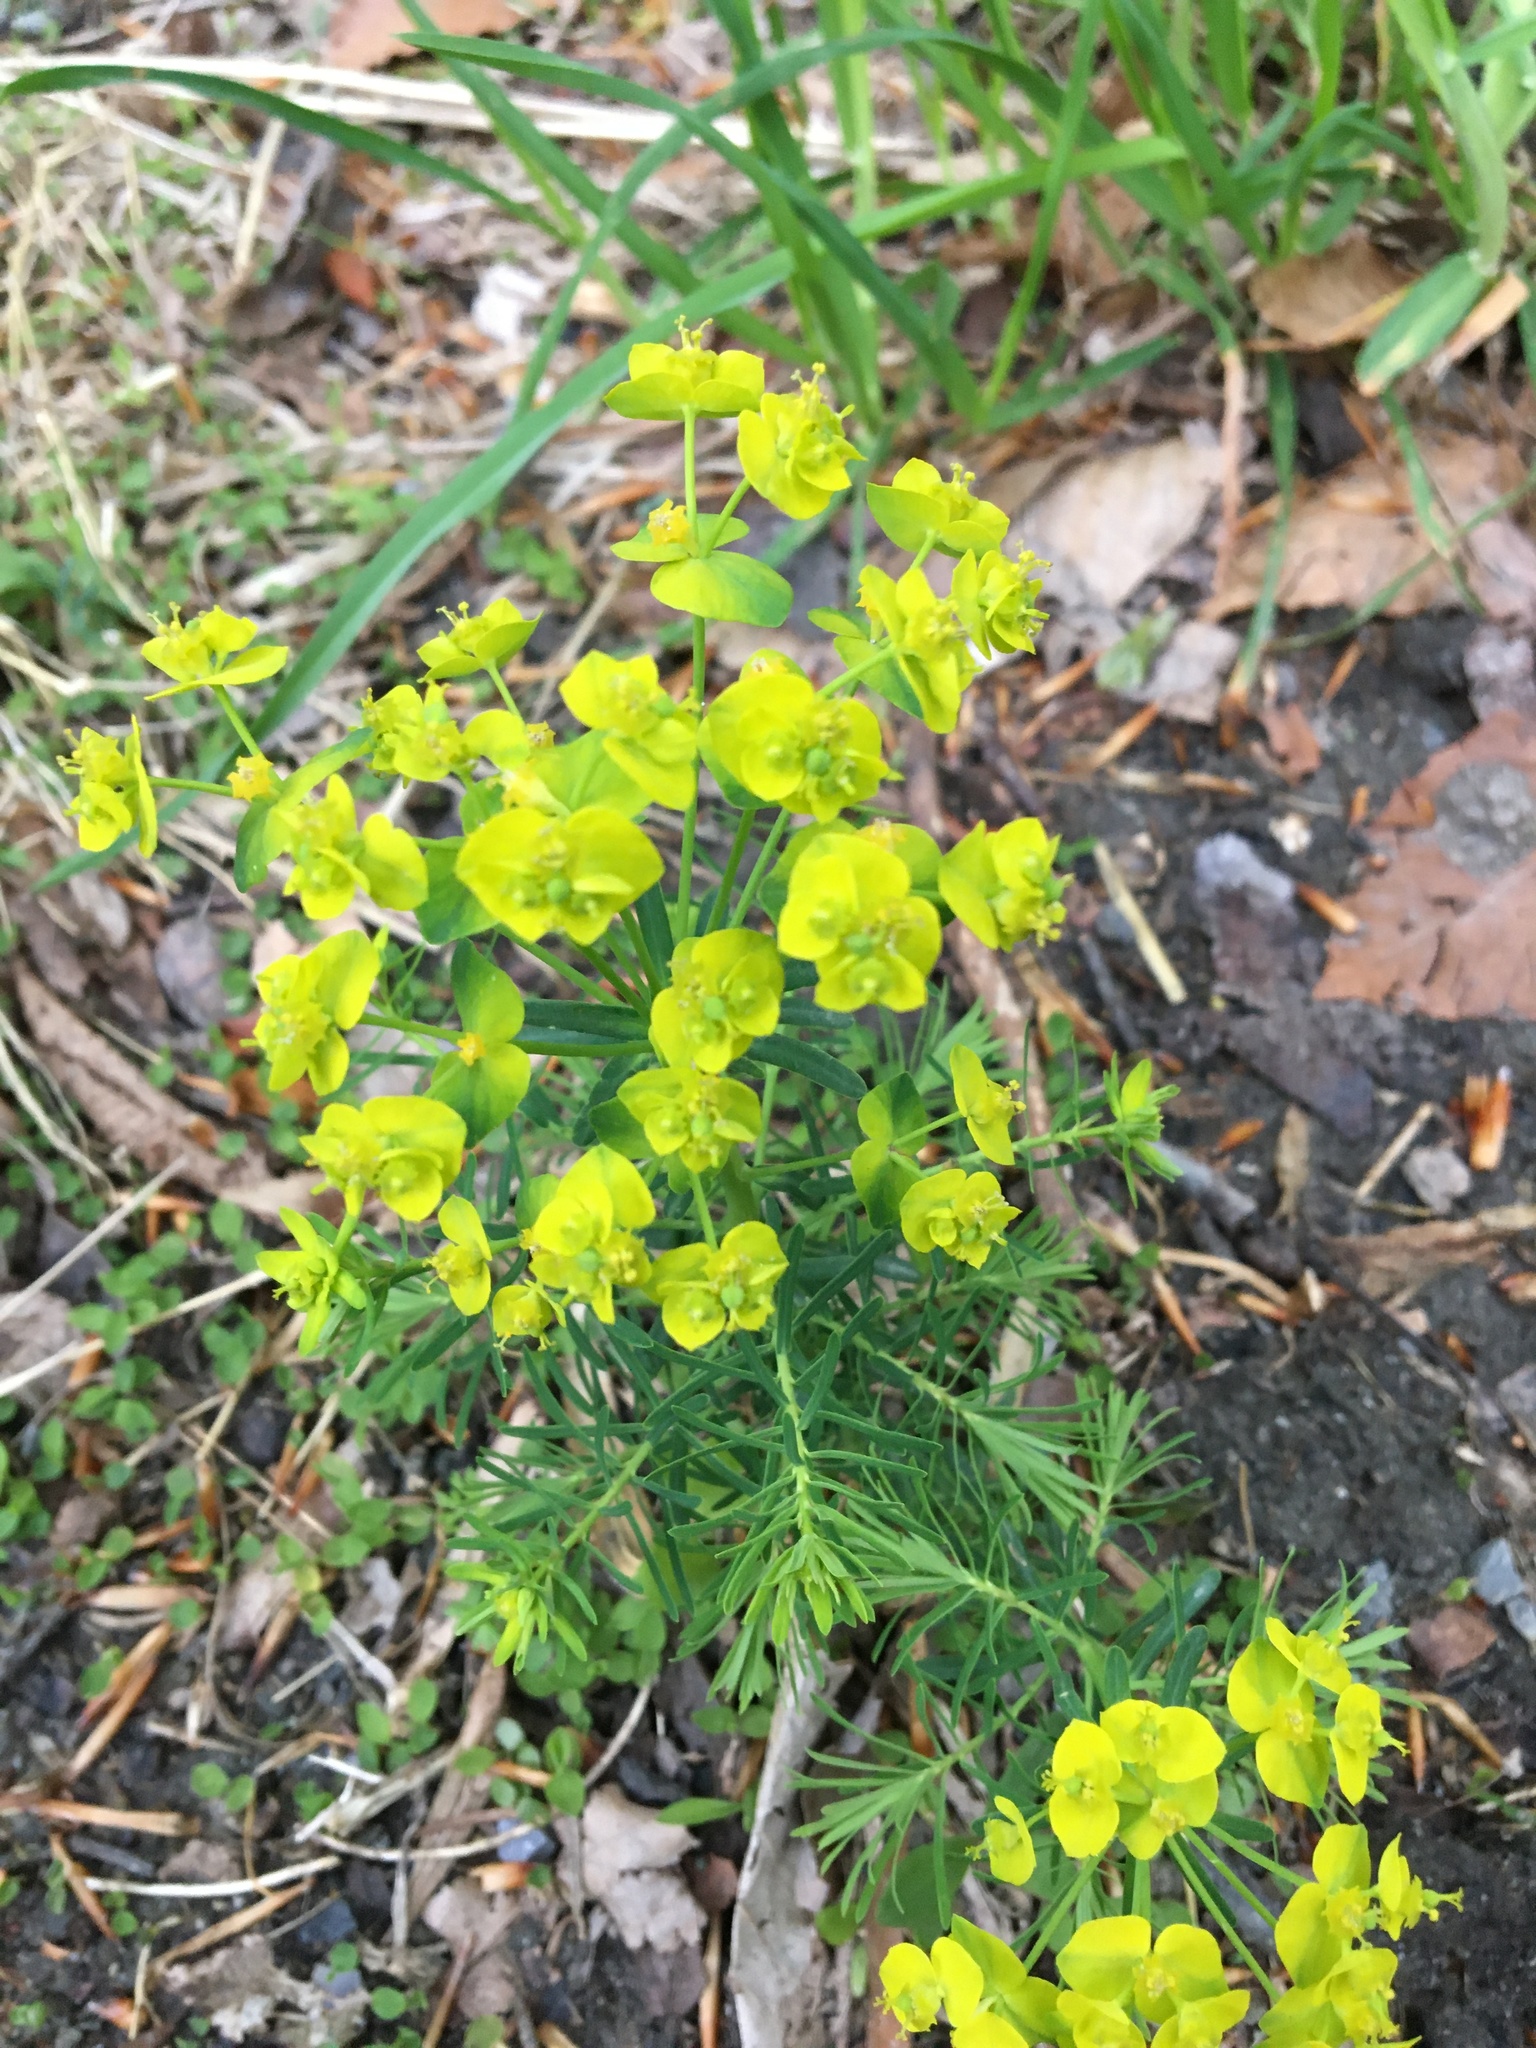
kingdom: Plantae
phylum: Tracheophyta
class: Magnoliopsida
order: Malpighiales
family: Euphorbiaceae
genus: Euphorbia
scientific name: Euphorbia cyparissias
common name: Cypress spurge
